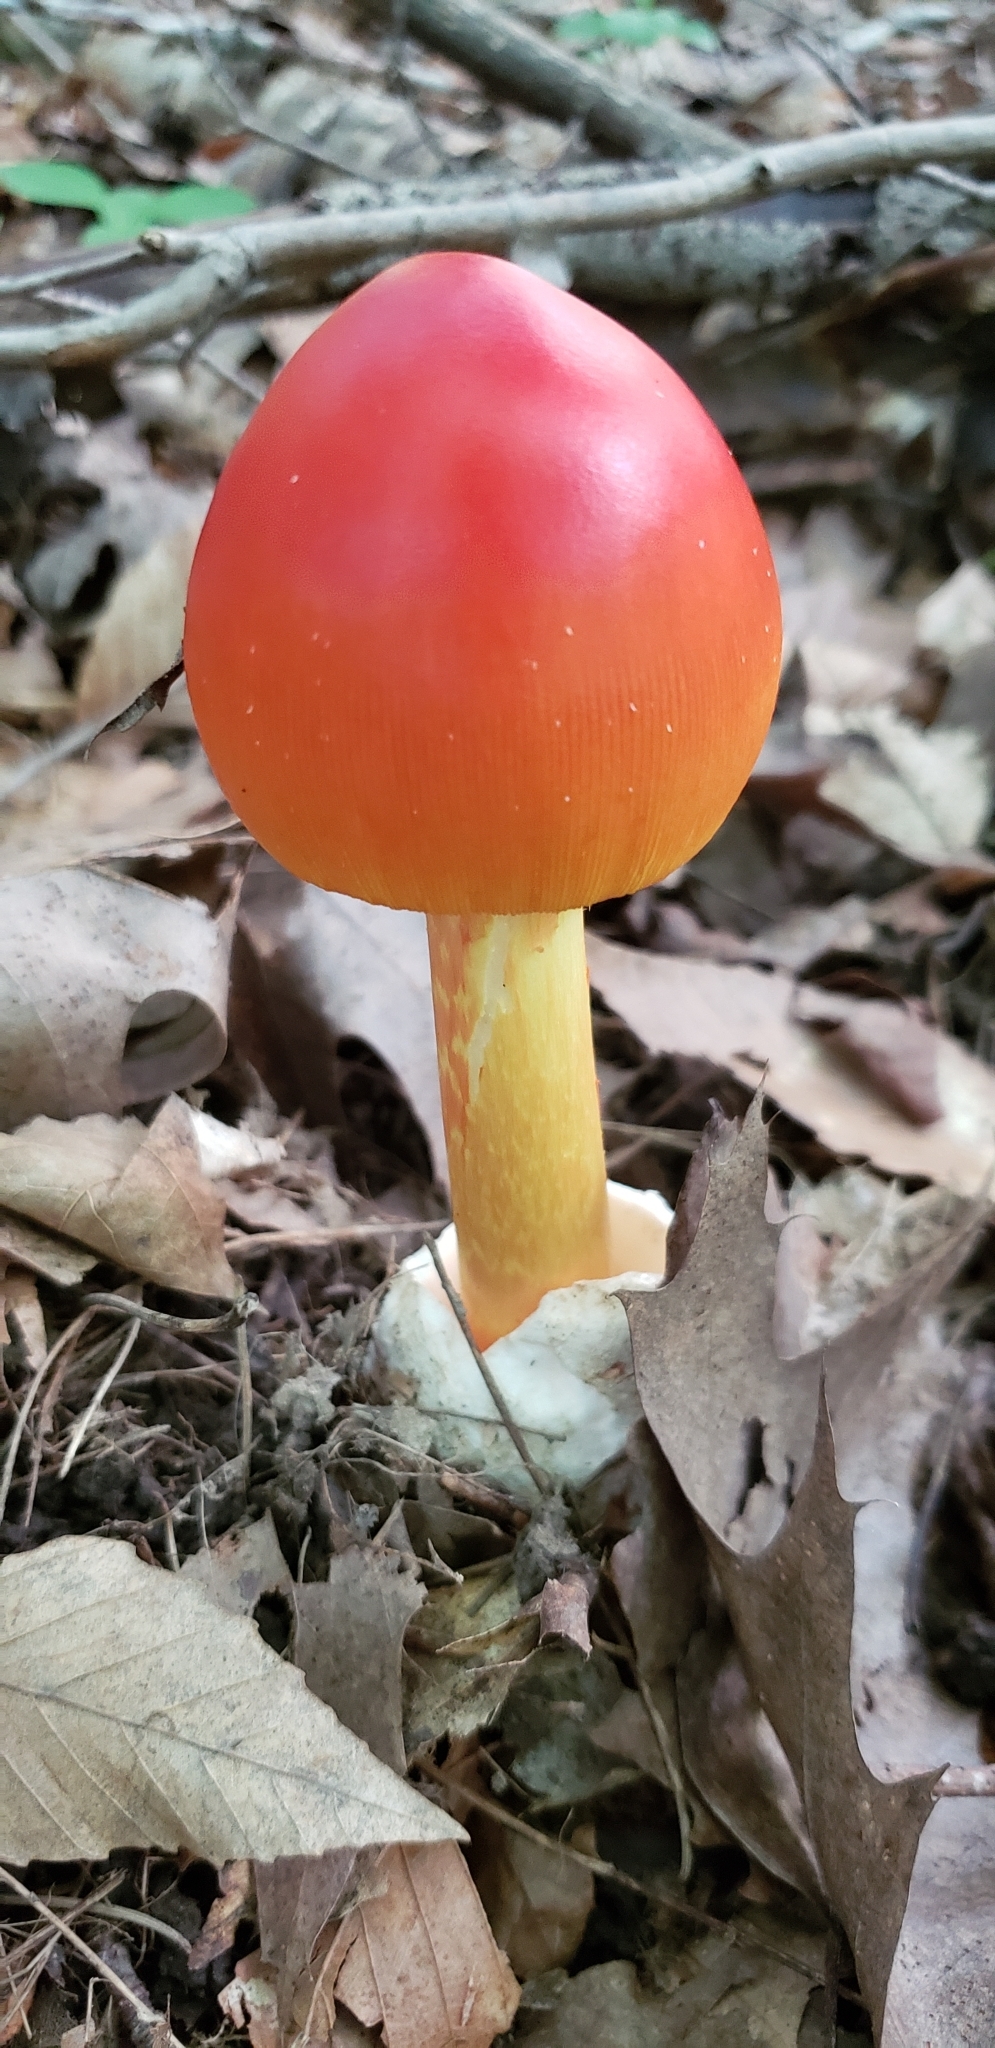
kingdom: Fungi
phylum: Basidiomycota
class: Agaricomycetes
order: Agaricales
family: Amanitaceae
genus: Amanita
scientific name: Amanita jacksonii
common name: Jackson's slender caesar
